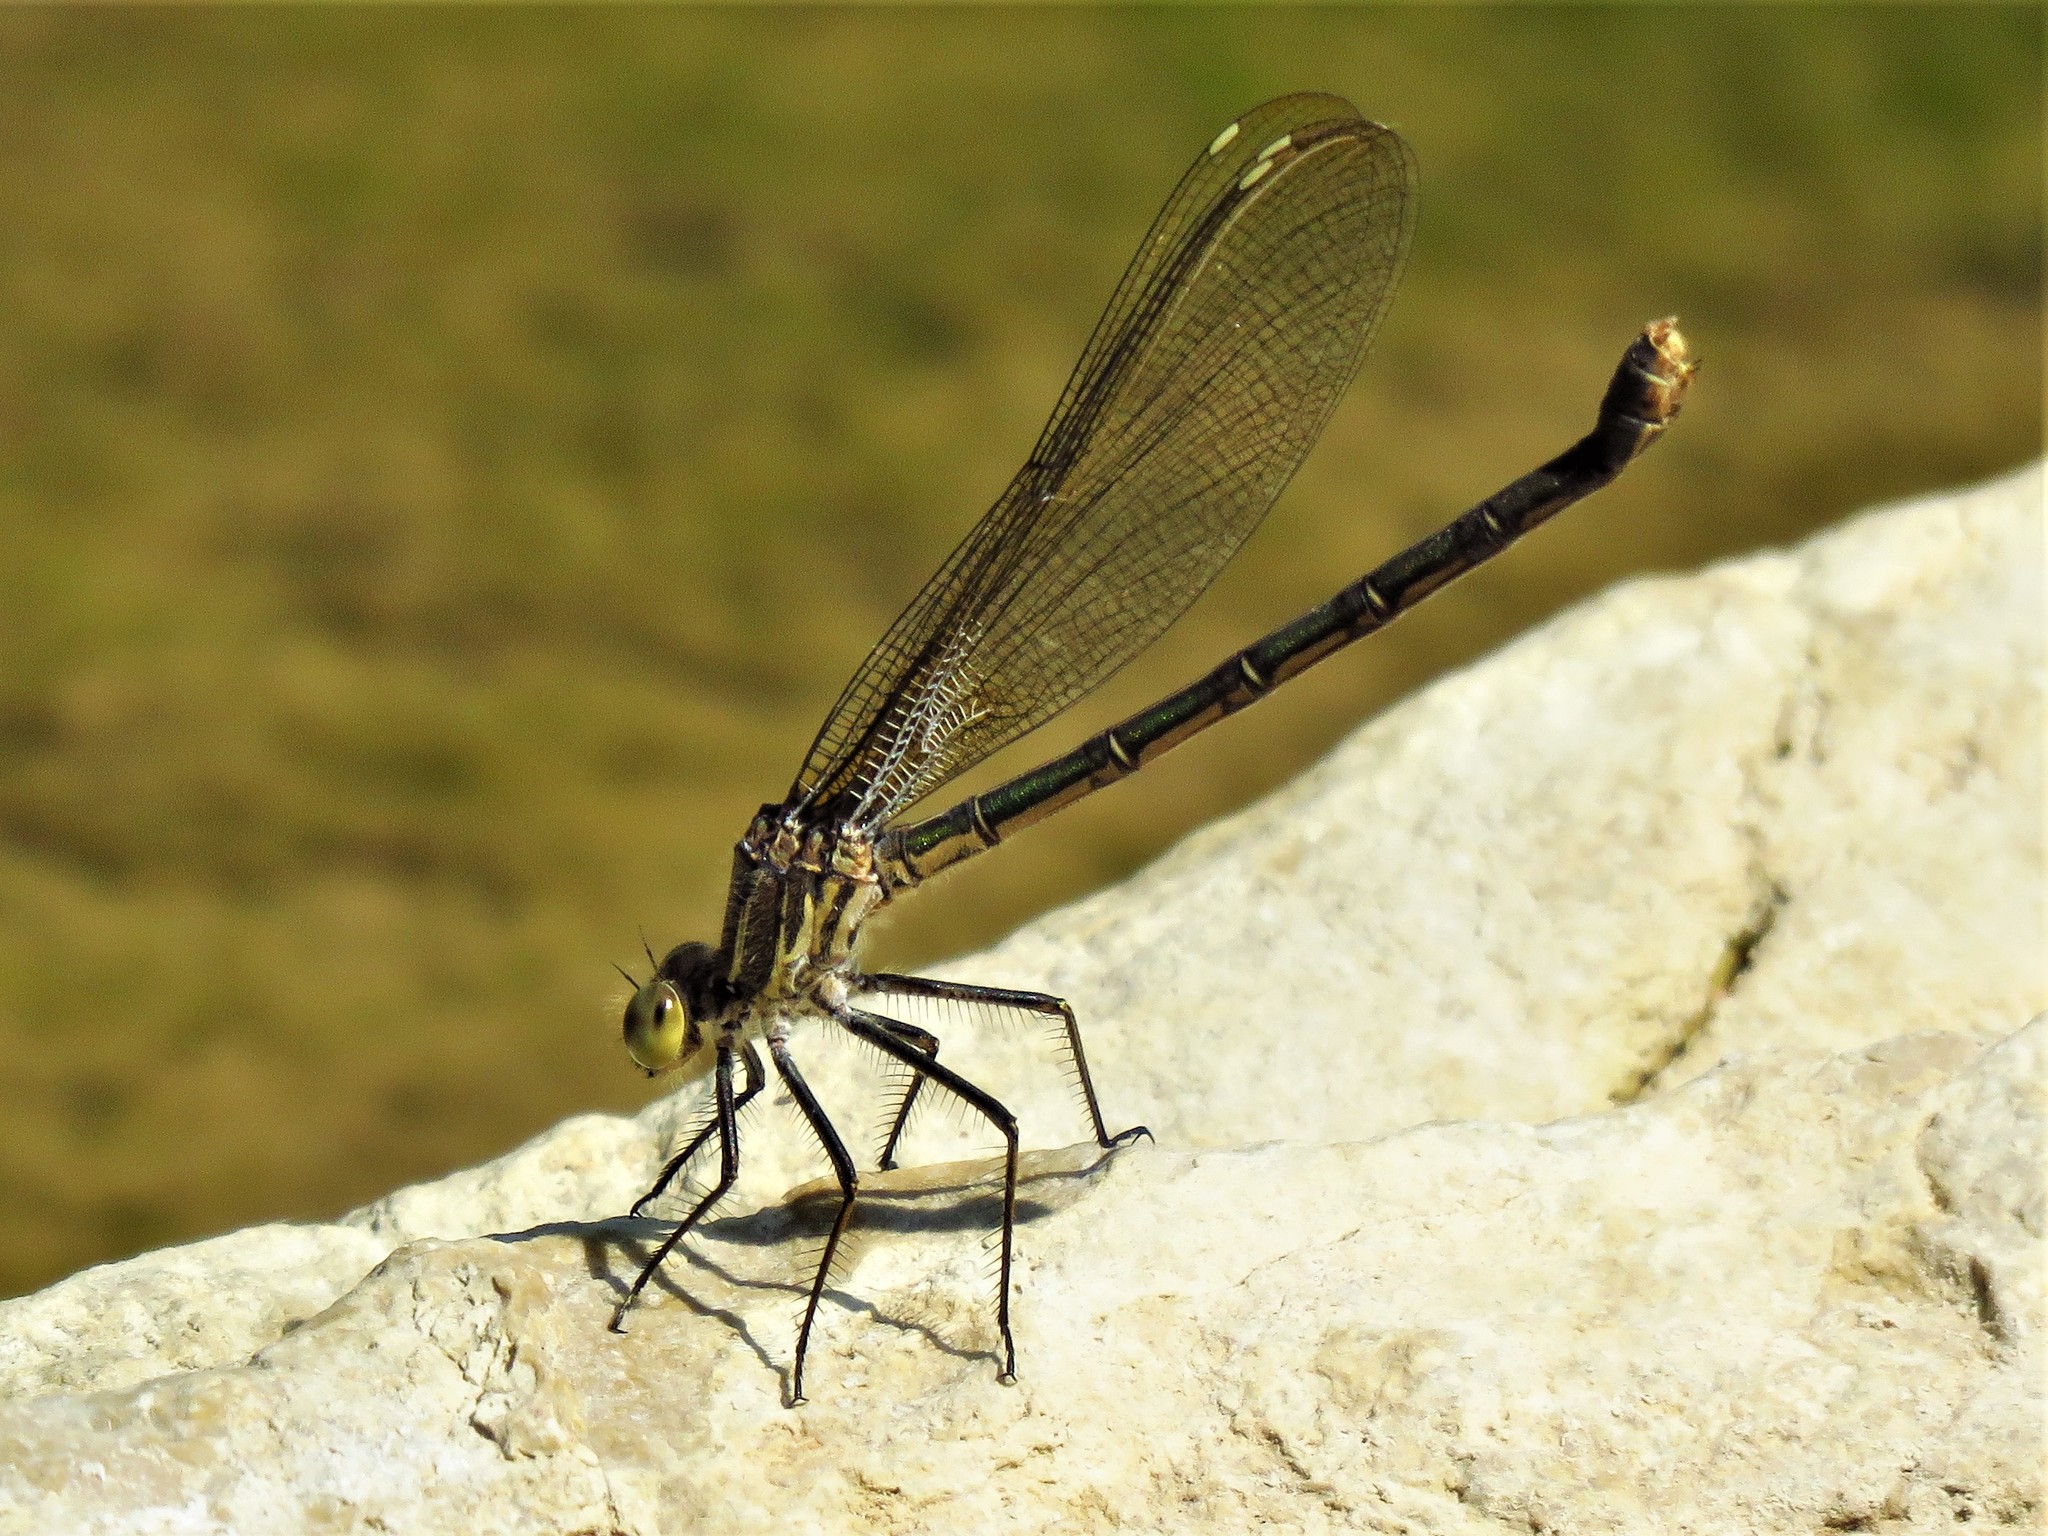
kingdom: Animalia
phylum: Arthropoda
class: Insecta
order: Odonata
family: Calopterygidae
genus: Hetaerina
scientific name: Hetaerina americana
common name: American rubyspot
